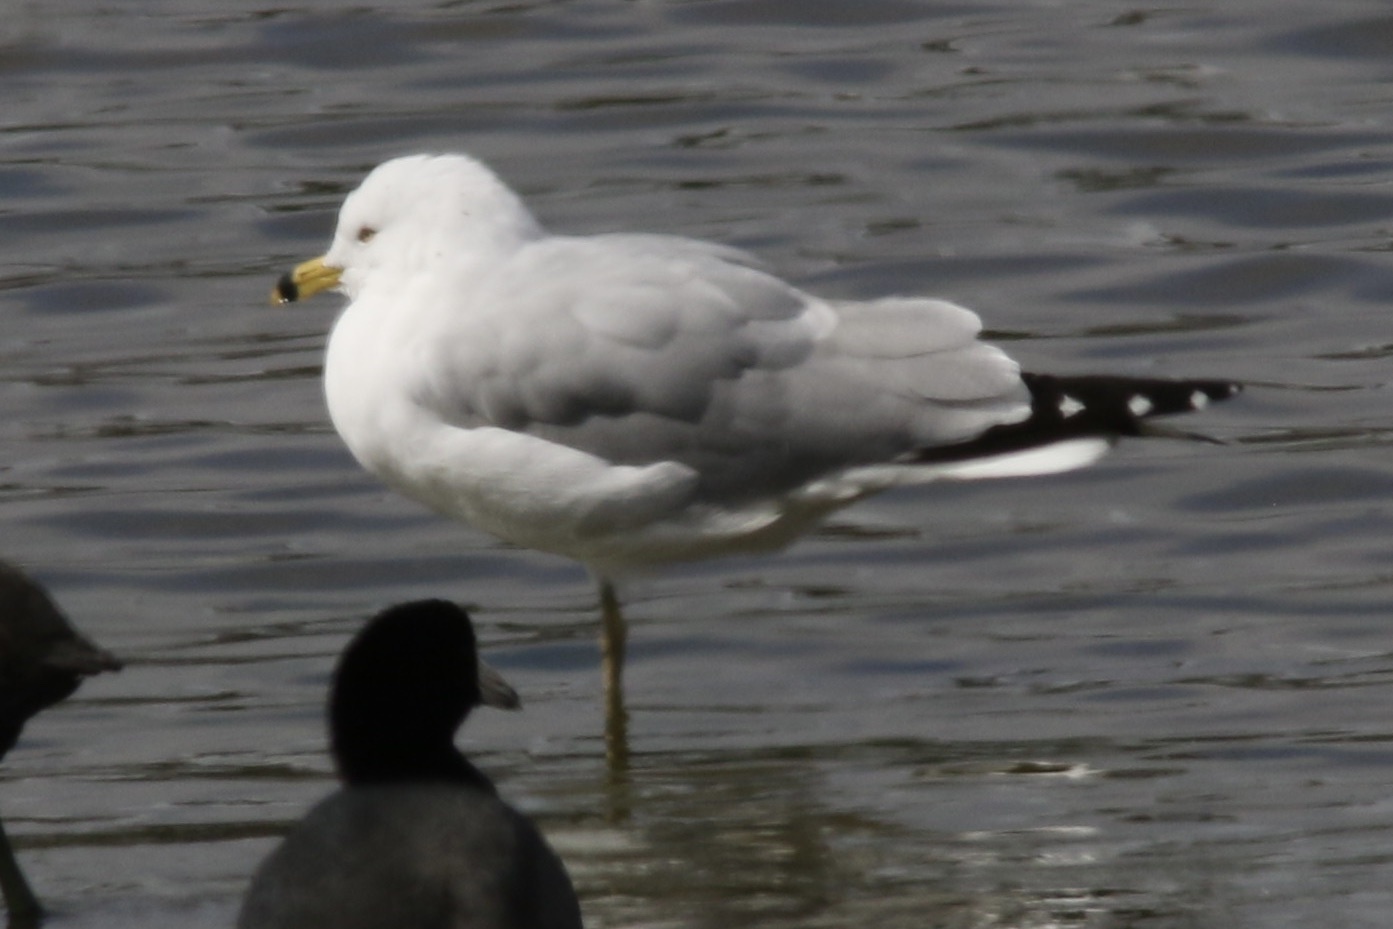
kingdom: Animalia
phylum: Chordata
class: Aves
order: Charadriiformes
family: Laridae
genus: Larus
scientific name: Larus delawarensis
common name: Ring-billed gull
